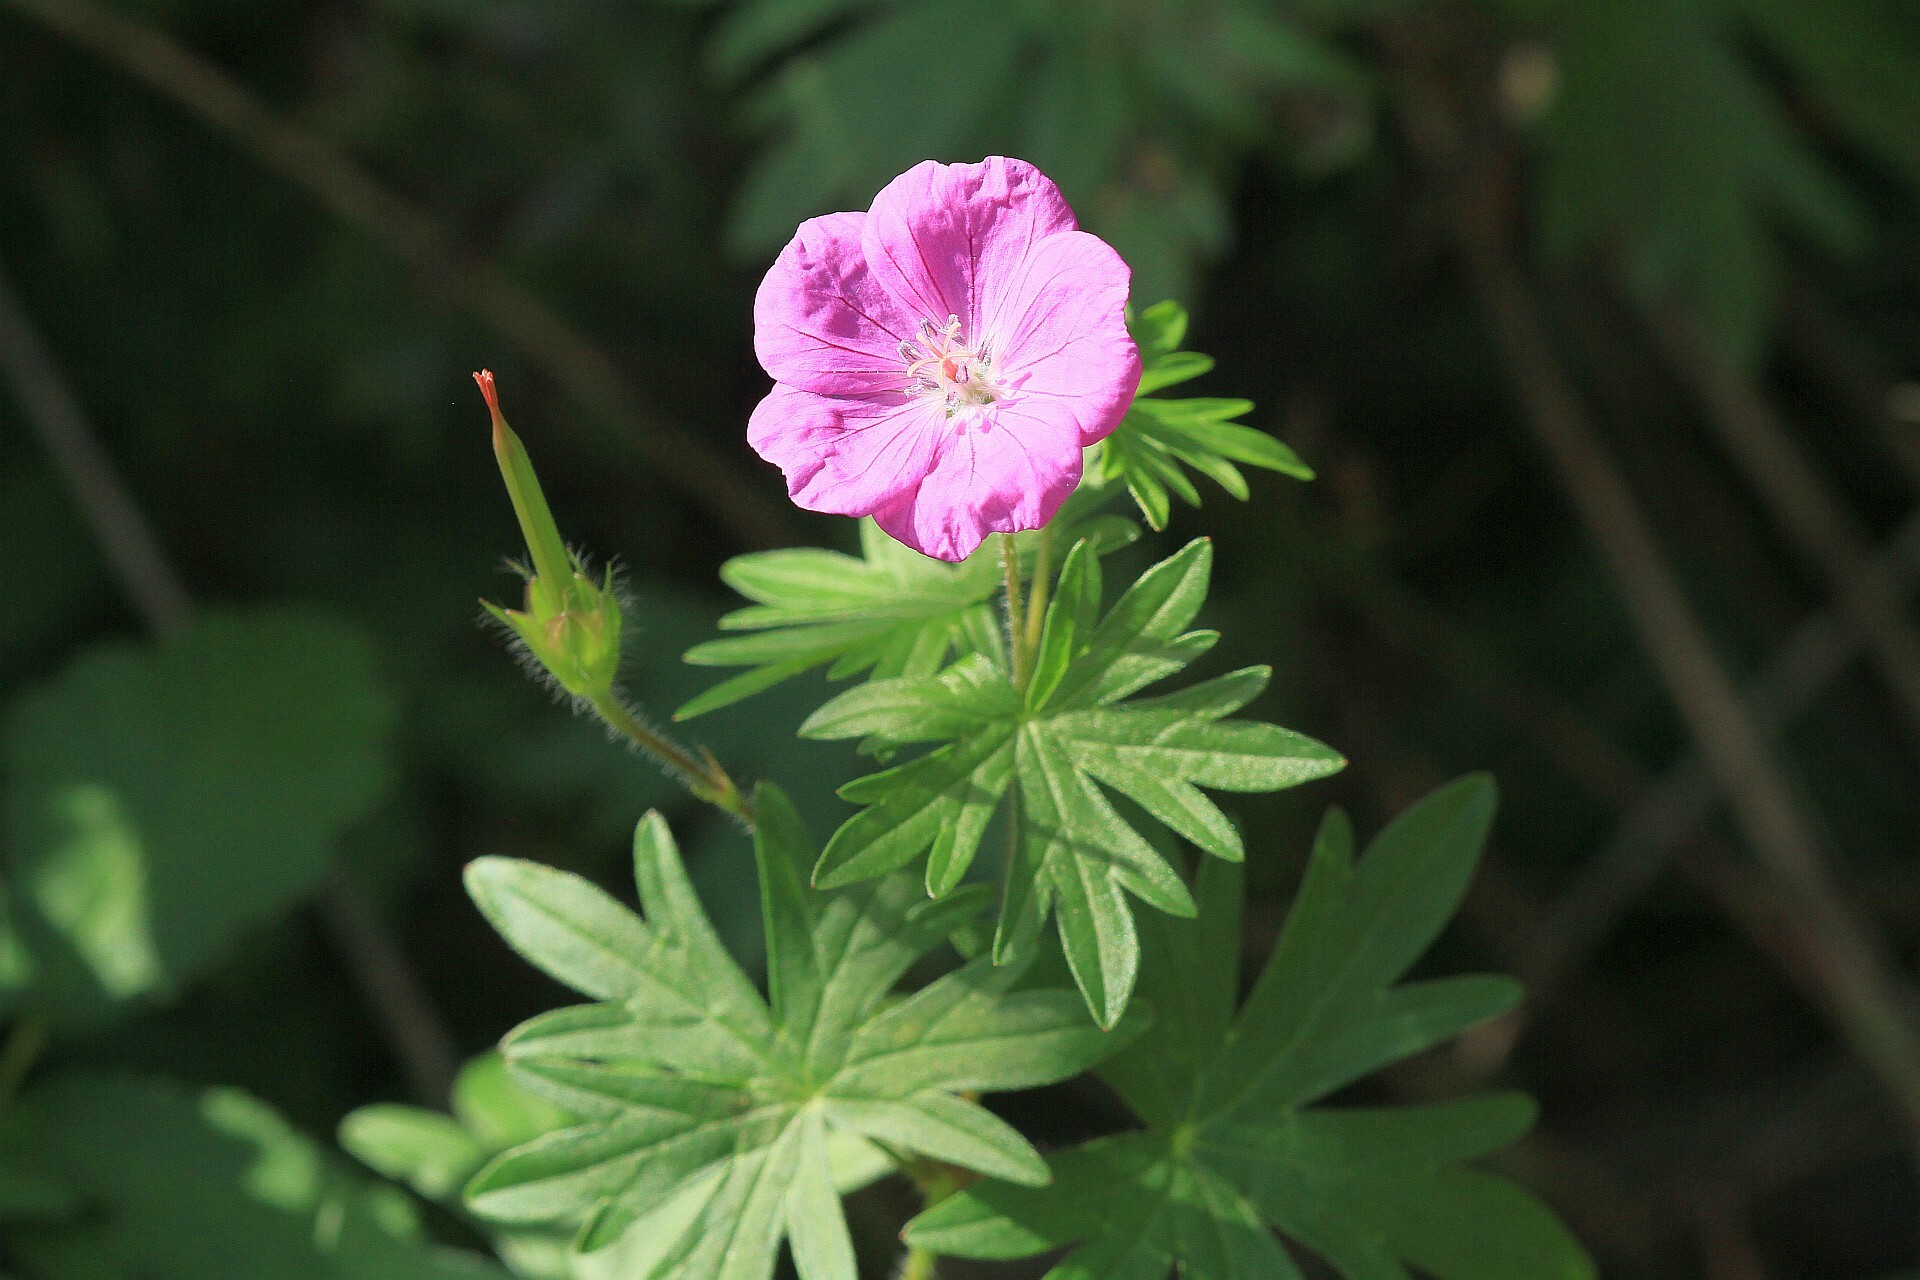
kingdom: Plantae
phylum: Tracheophyta
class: Magnoliopsida
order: Geraniales
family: Geraniaceae
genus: Geranium
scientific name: Geranium sanguineum
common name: Bloody crane's-bill
